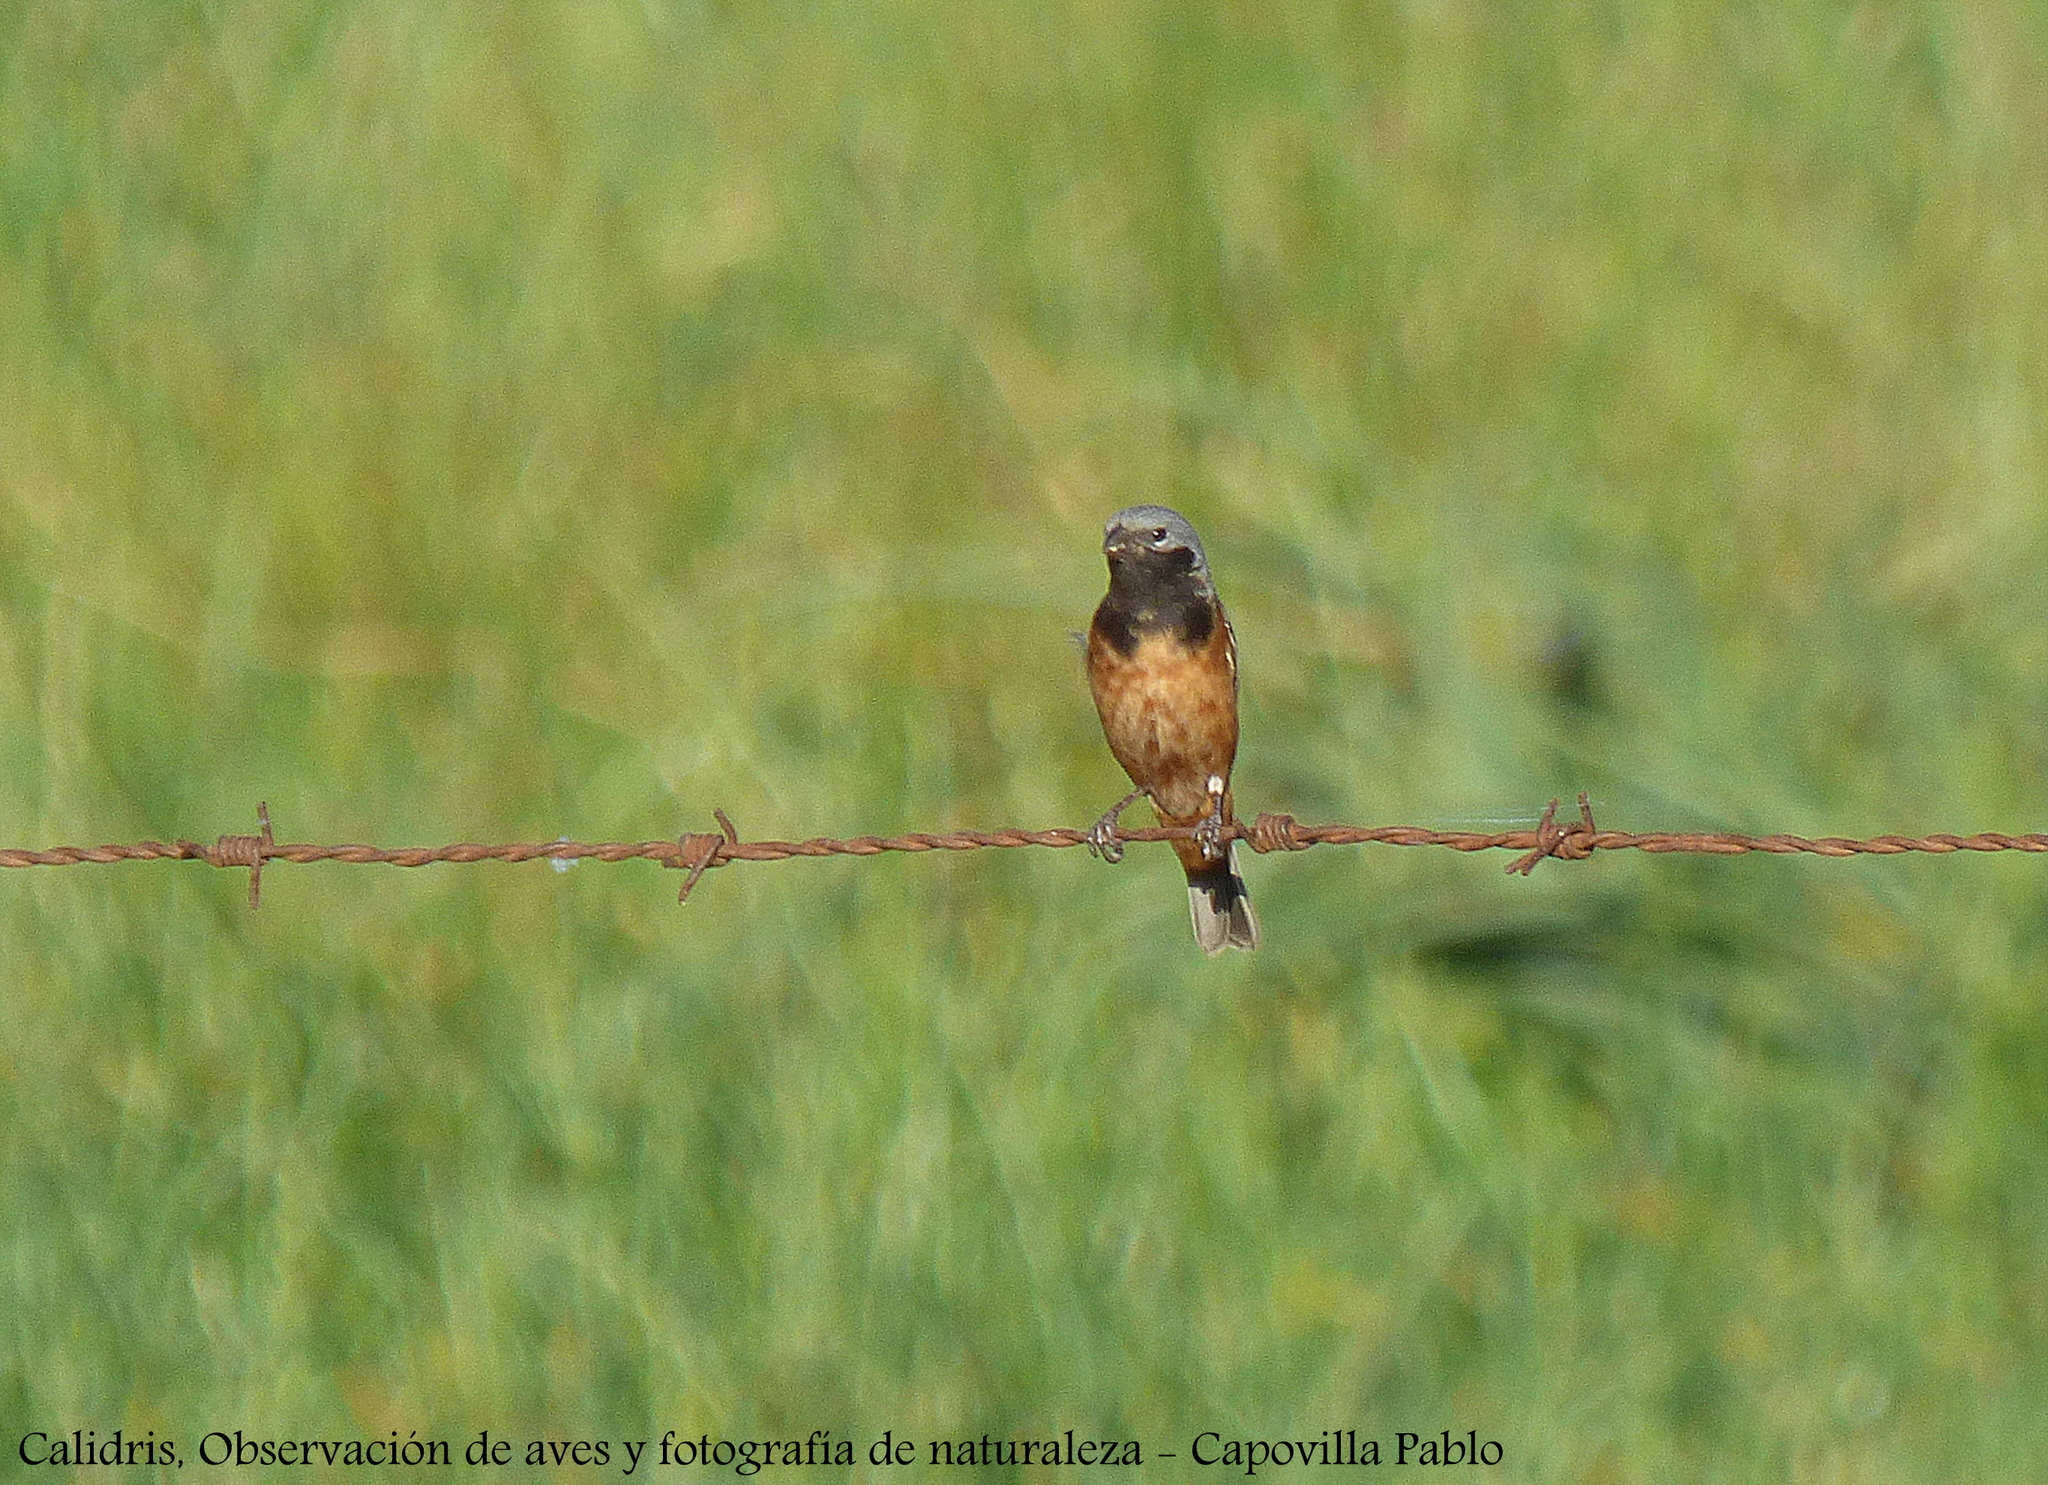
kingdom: Animalia
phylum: Chordata
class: Aves
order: Passeriformes
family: Thraupidae
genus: Sporophila
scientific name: Sporophila ruficollis
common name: Dark-throated seedeater
